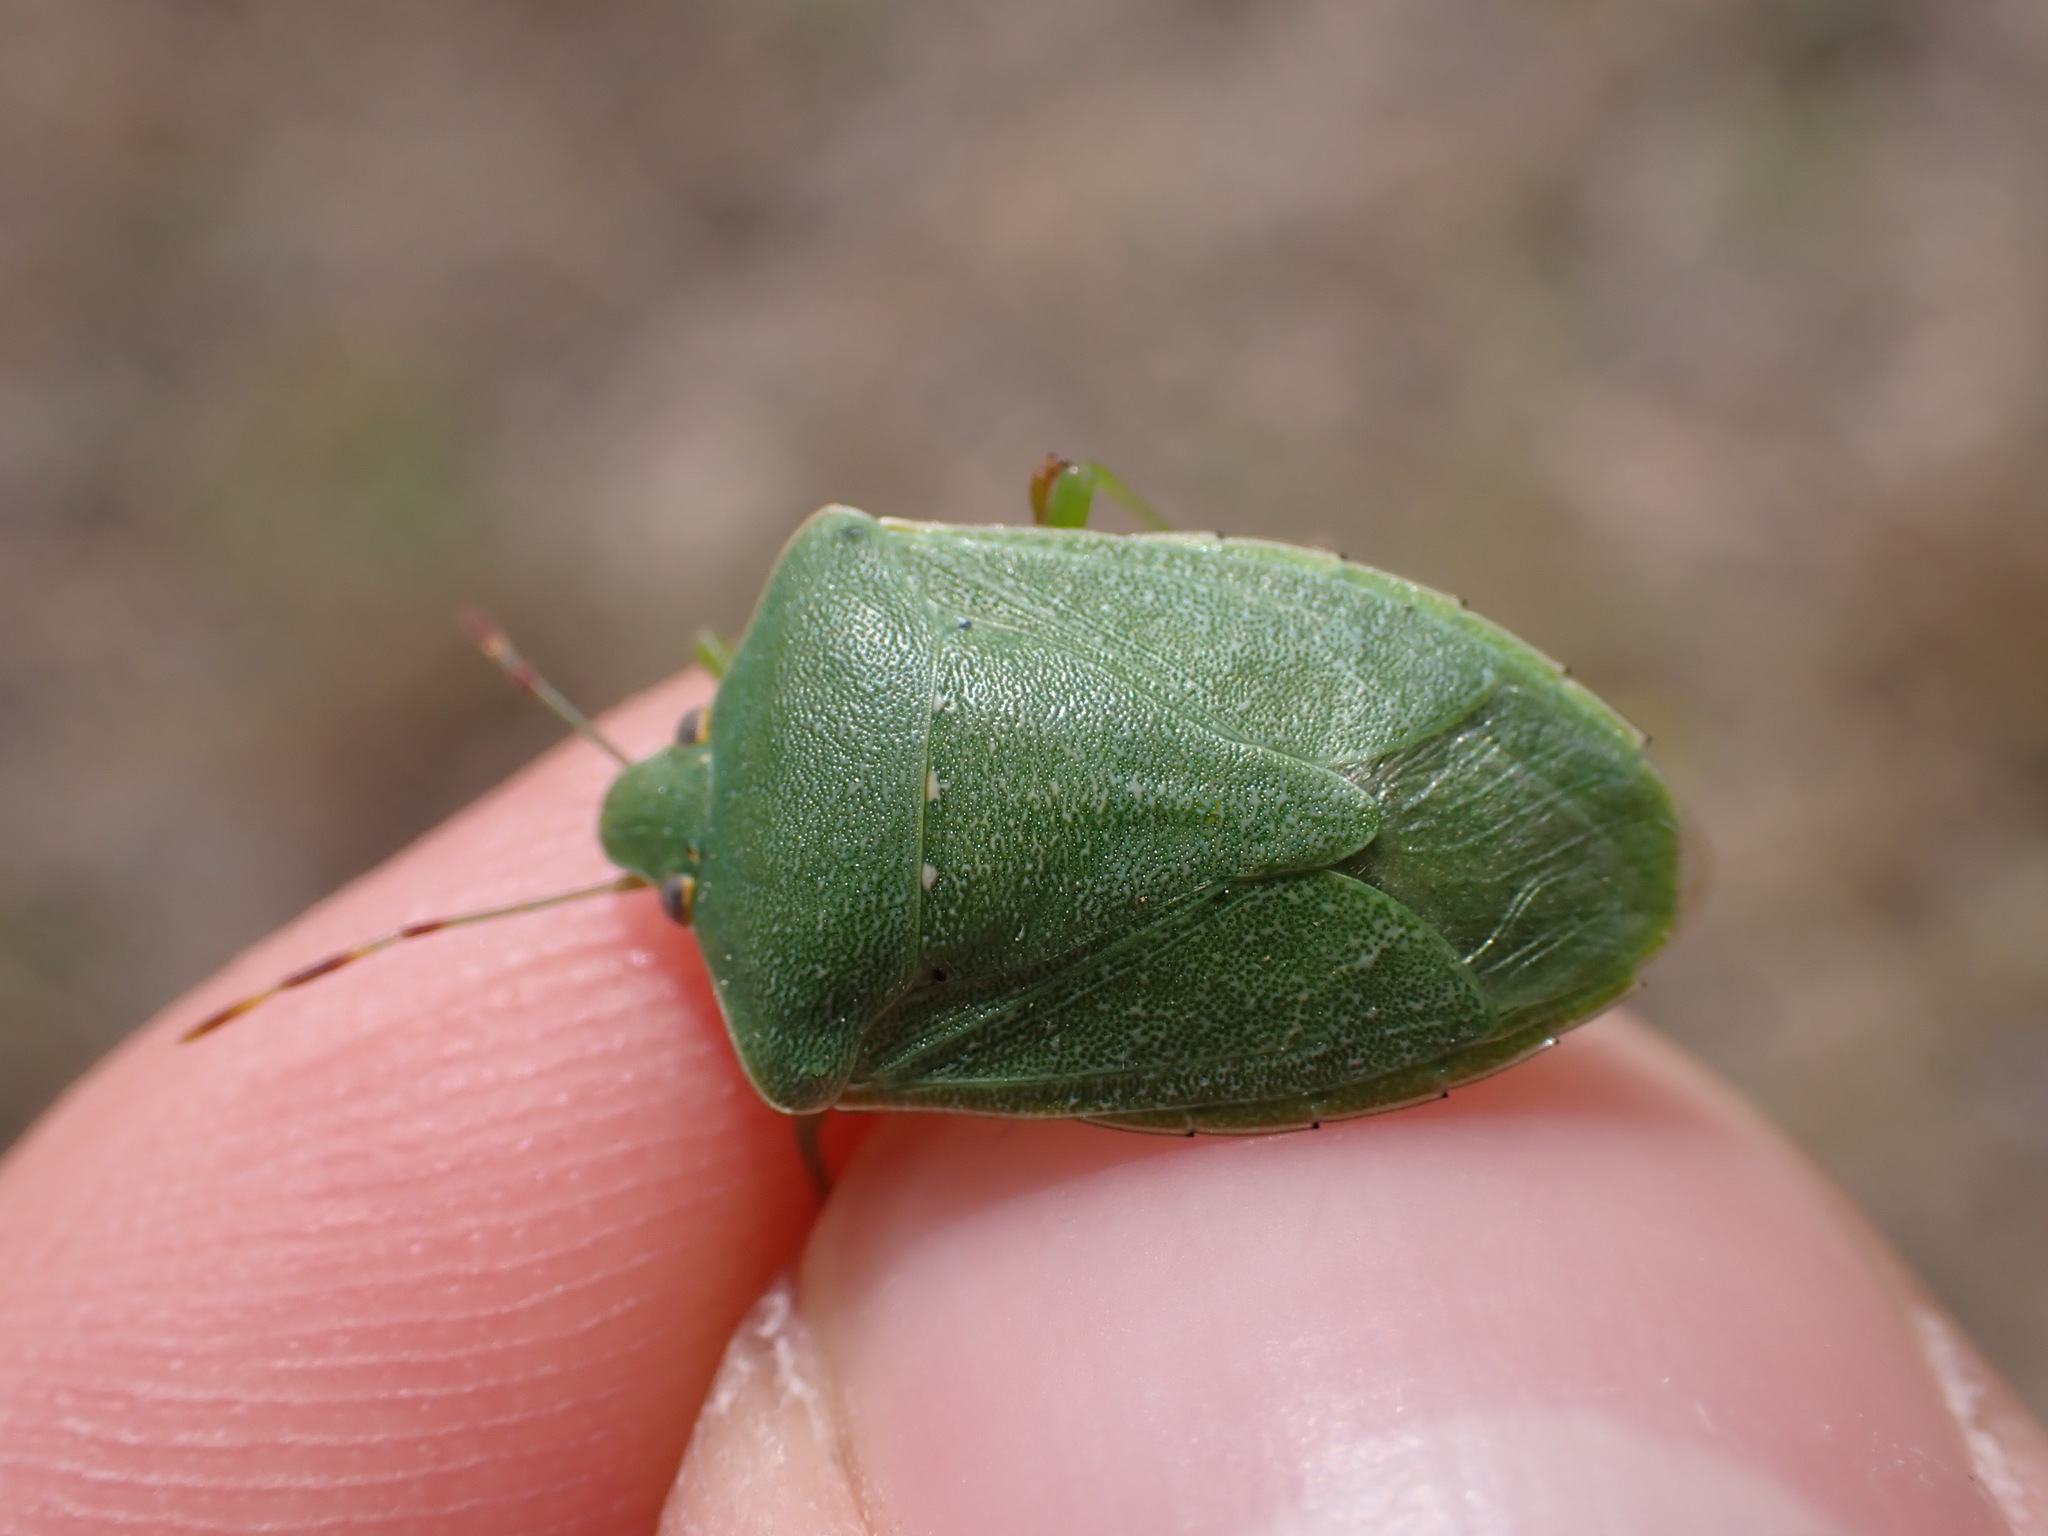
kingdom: Animalia
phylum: Arthropoda
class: Insecta
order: Hemiptera
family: Pentatomidae
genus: Nezara
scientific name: Nezara viridula
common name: Southern green stink bug
